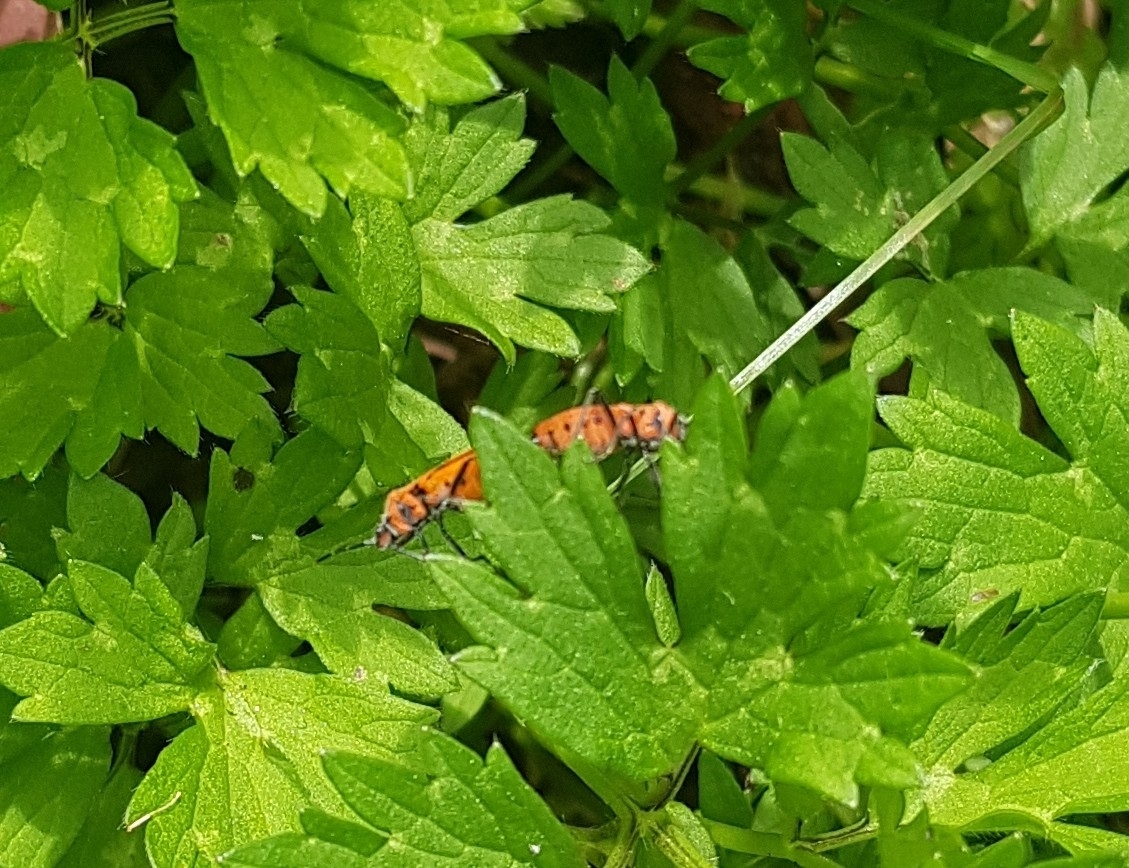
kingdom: Animalia
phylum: Arthropoda
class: Insecta
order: Hemiptera
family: Rhopalidae
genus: Corizus
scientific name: Corizus hyoscyami
